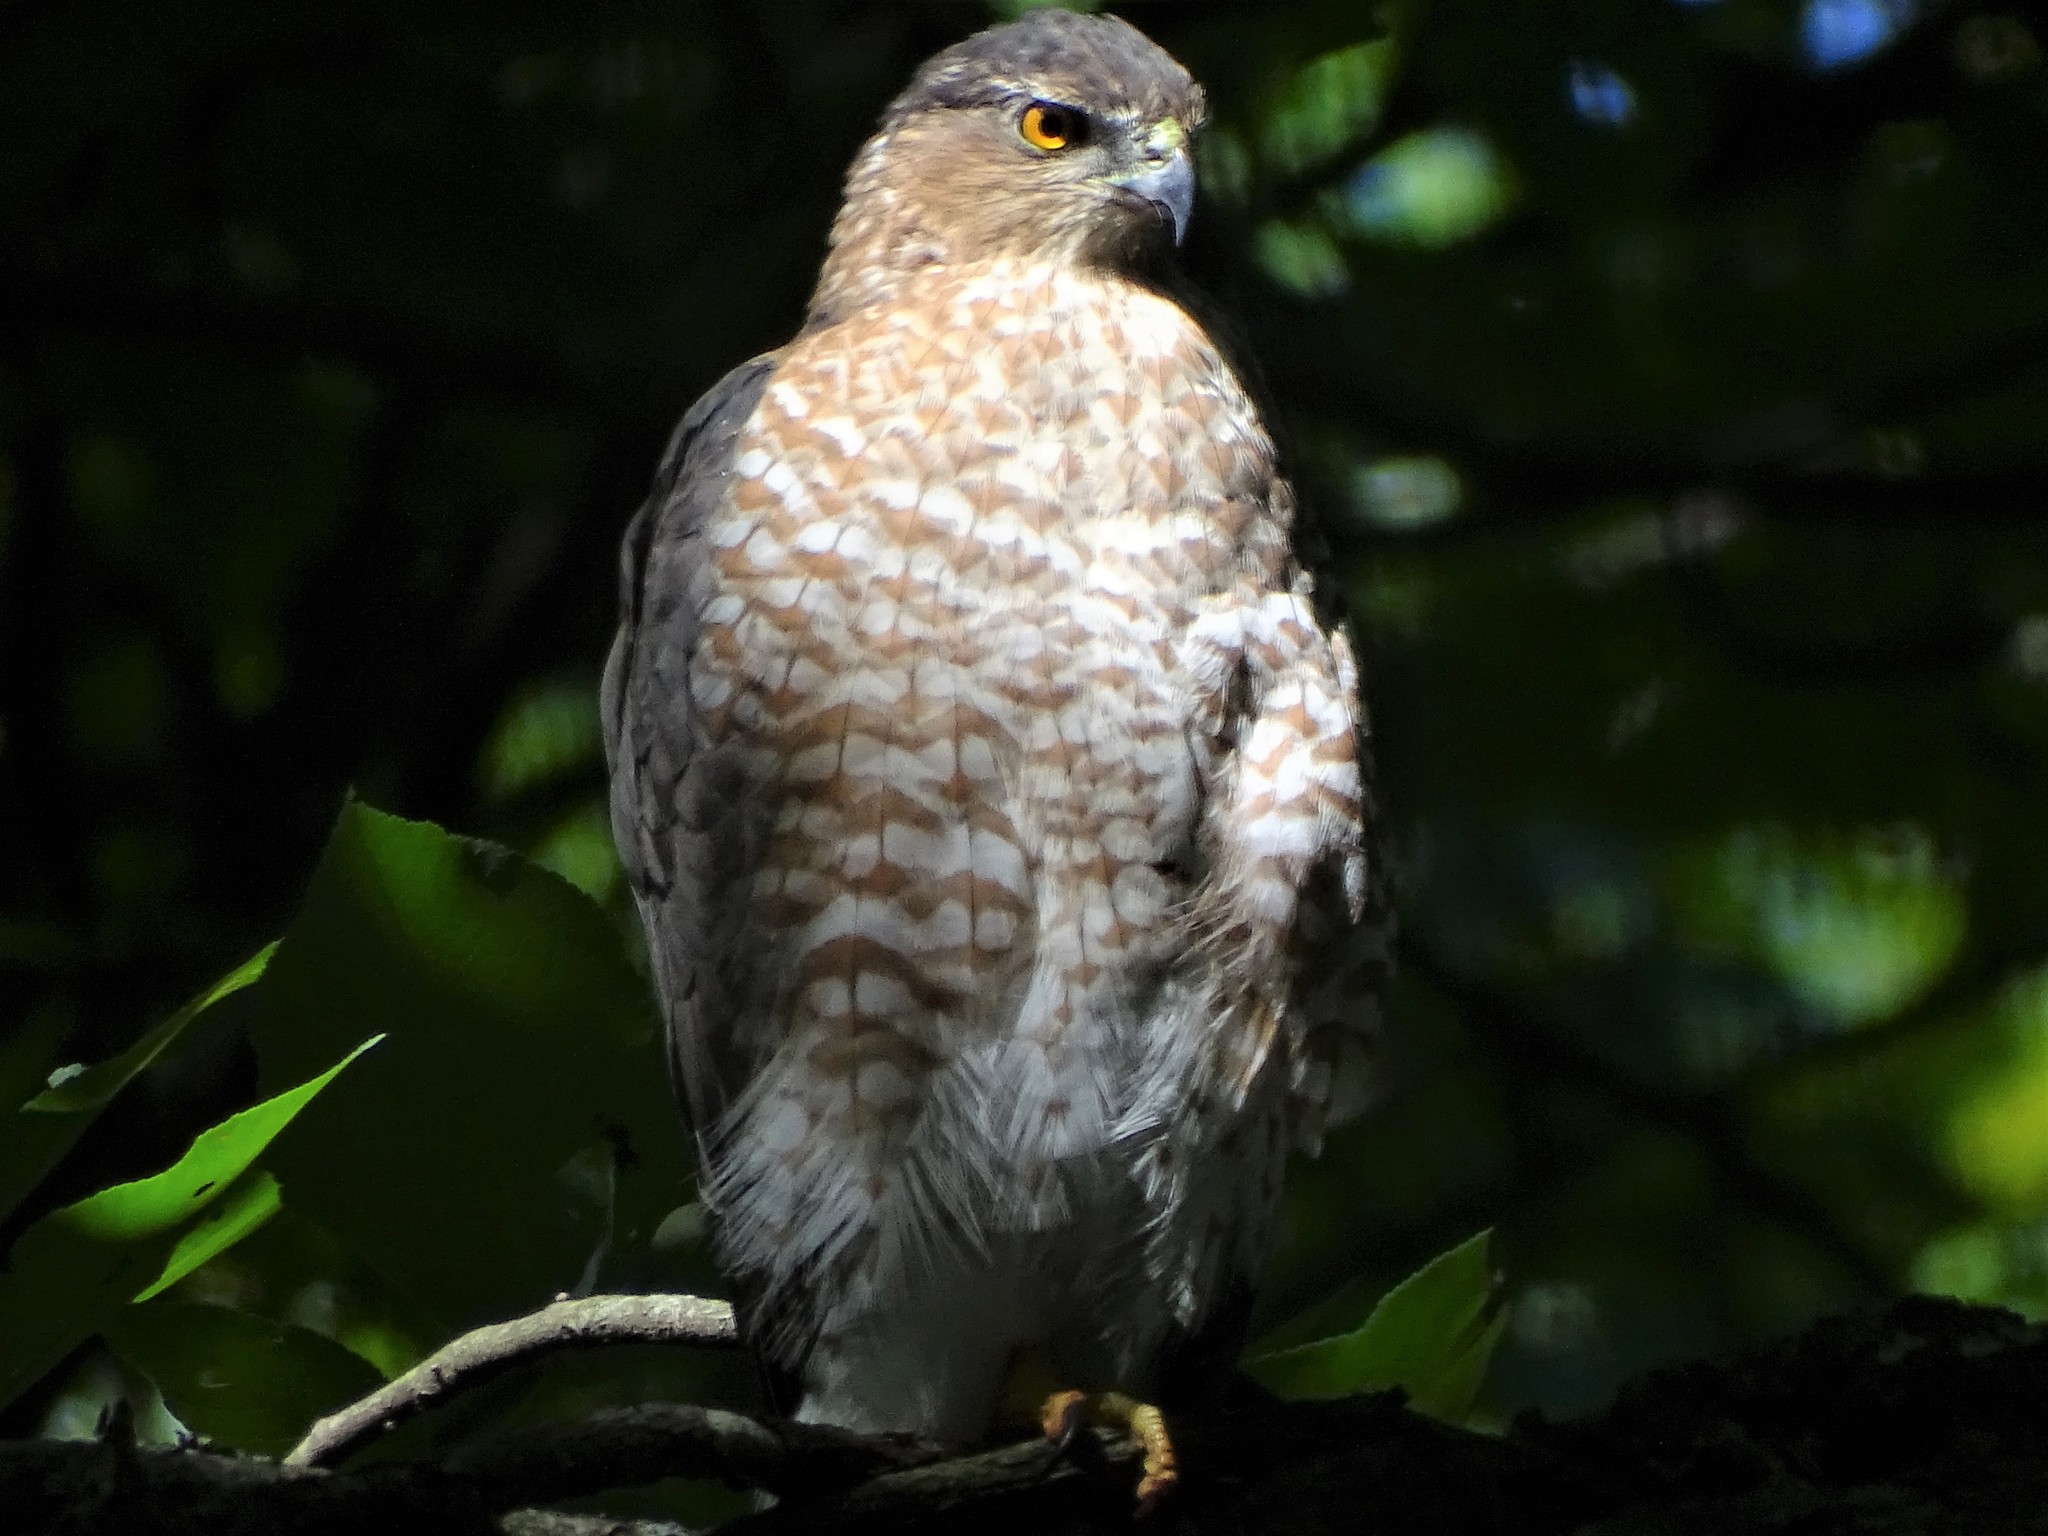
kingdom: Animalia
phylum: Chordata
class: Aves
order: Accipitriformes
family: Accipitridae
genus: Accipiter
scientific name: Accipiter cooperii
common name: Cooper's hawk
